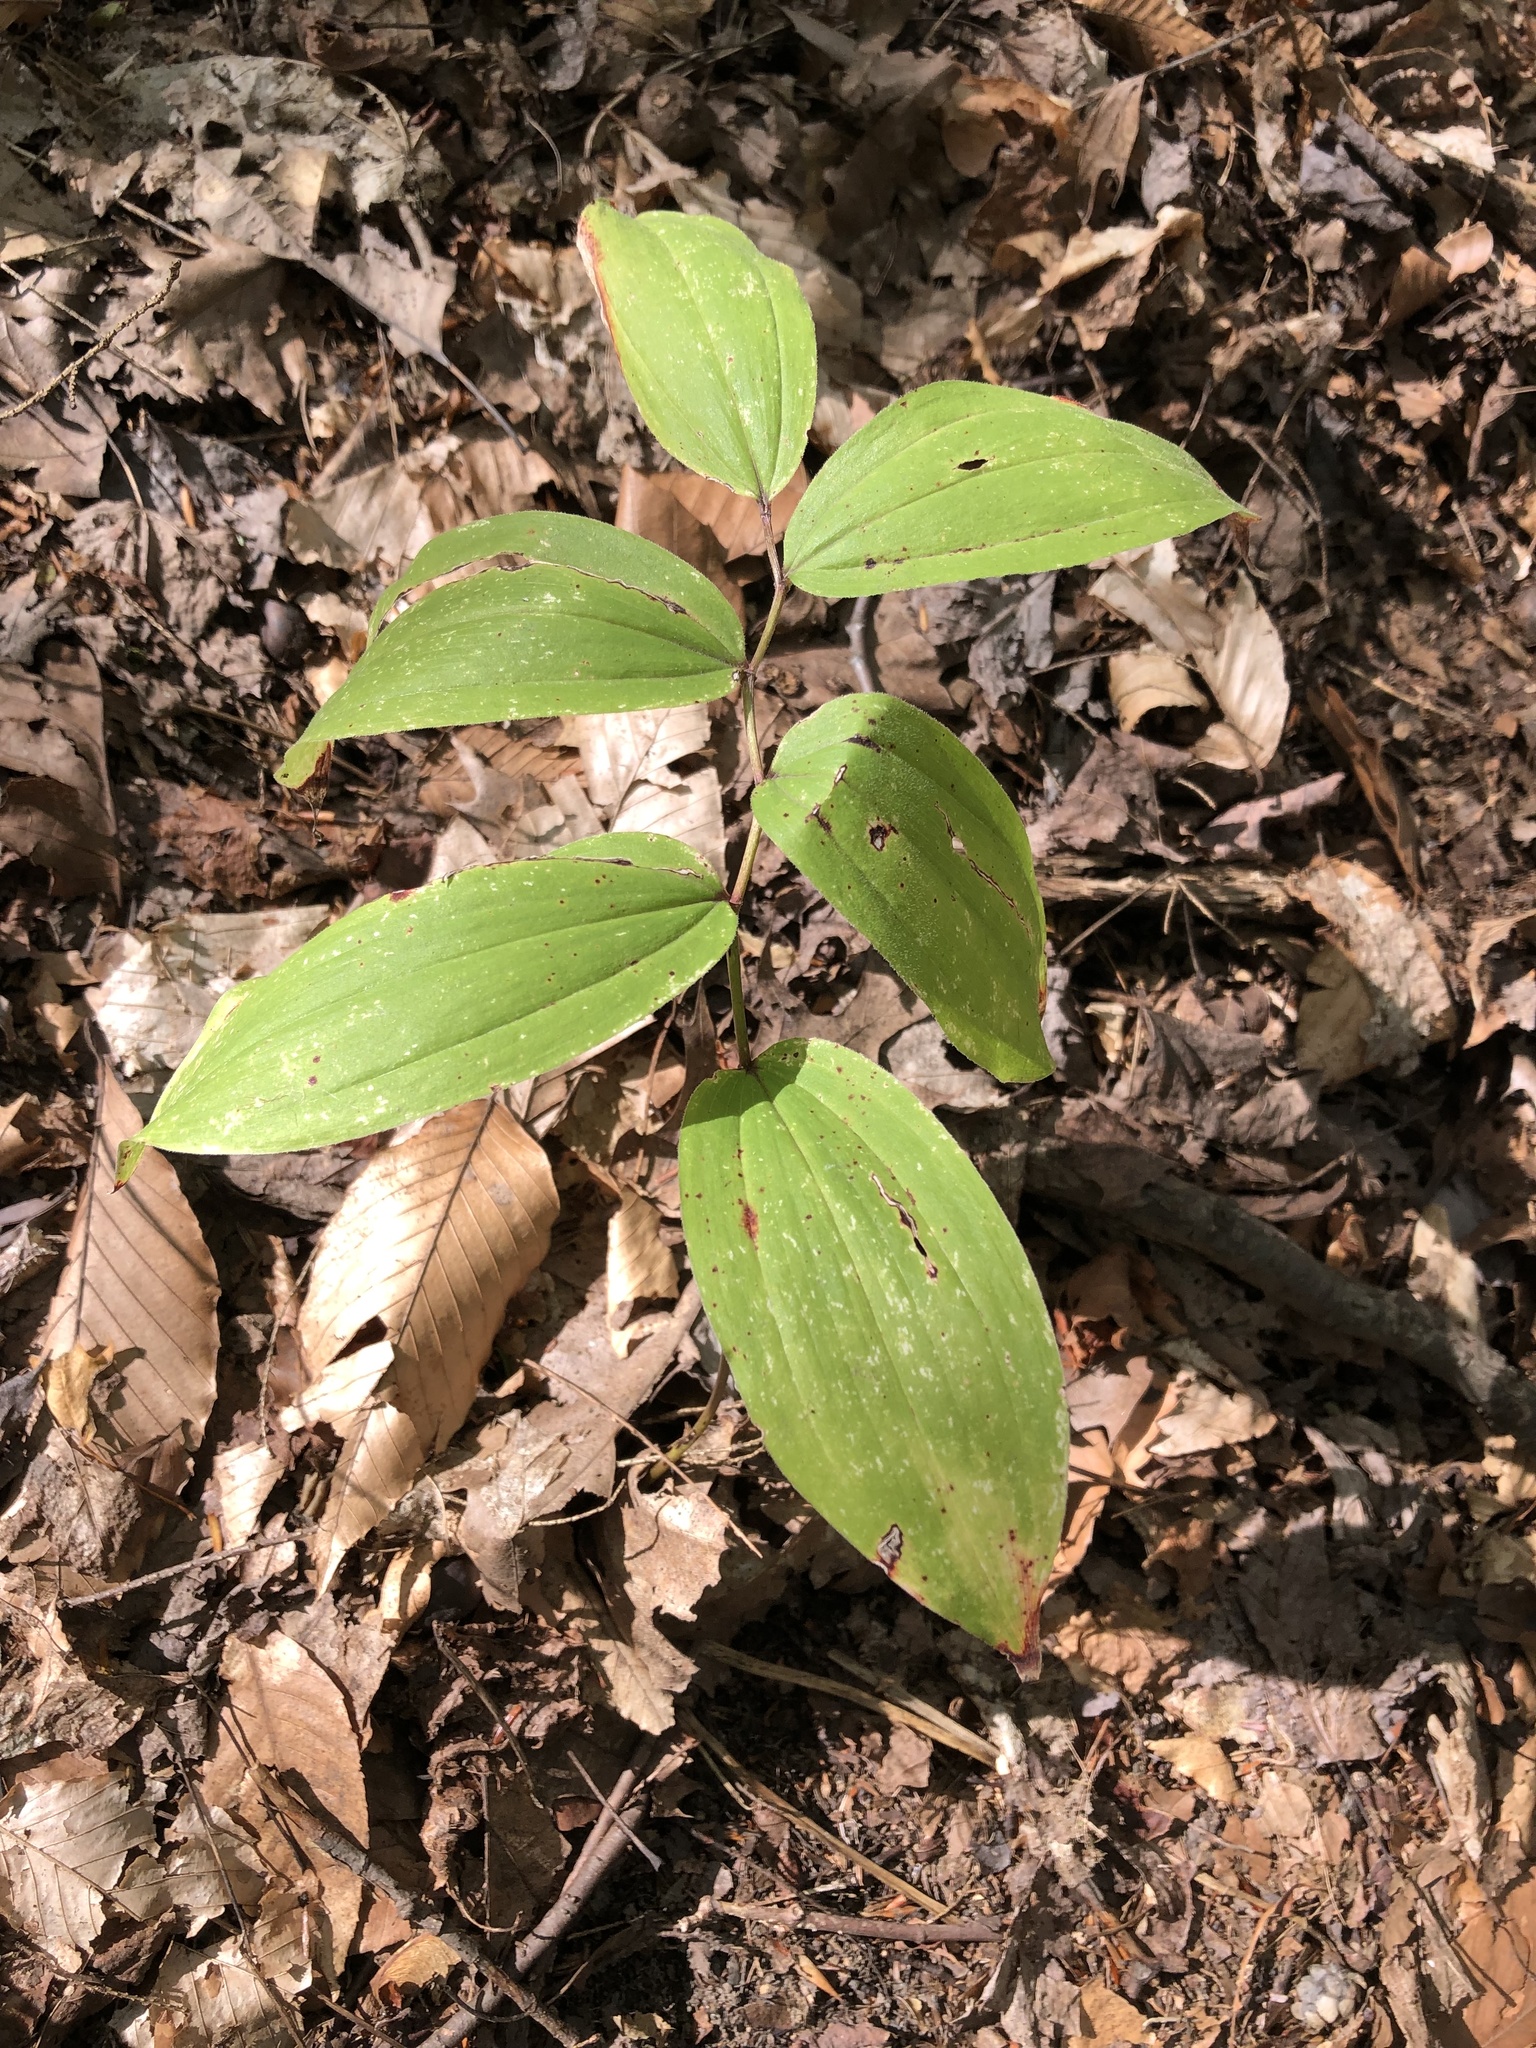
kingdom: Plantae
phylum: Tracheophyta
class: Liliopsida
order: Asparagales
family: Asparagaceae
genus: Maianthemum
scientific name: Maianthemum racemosum
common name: False spikenard
